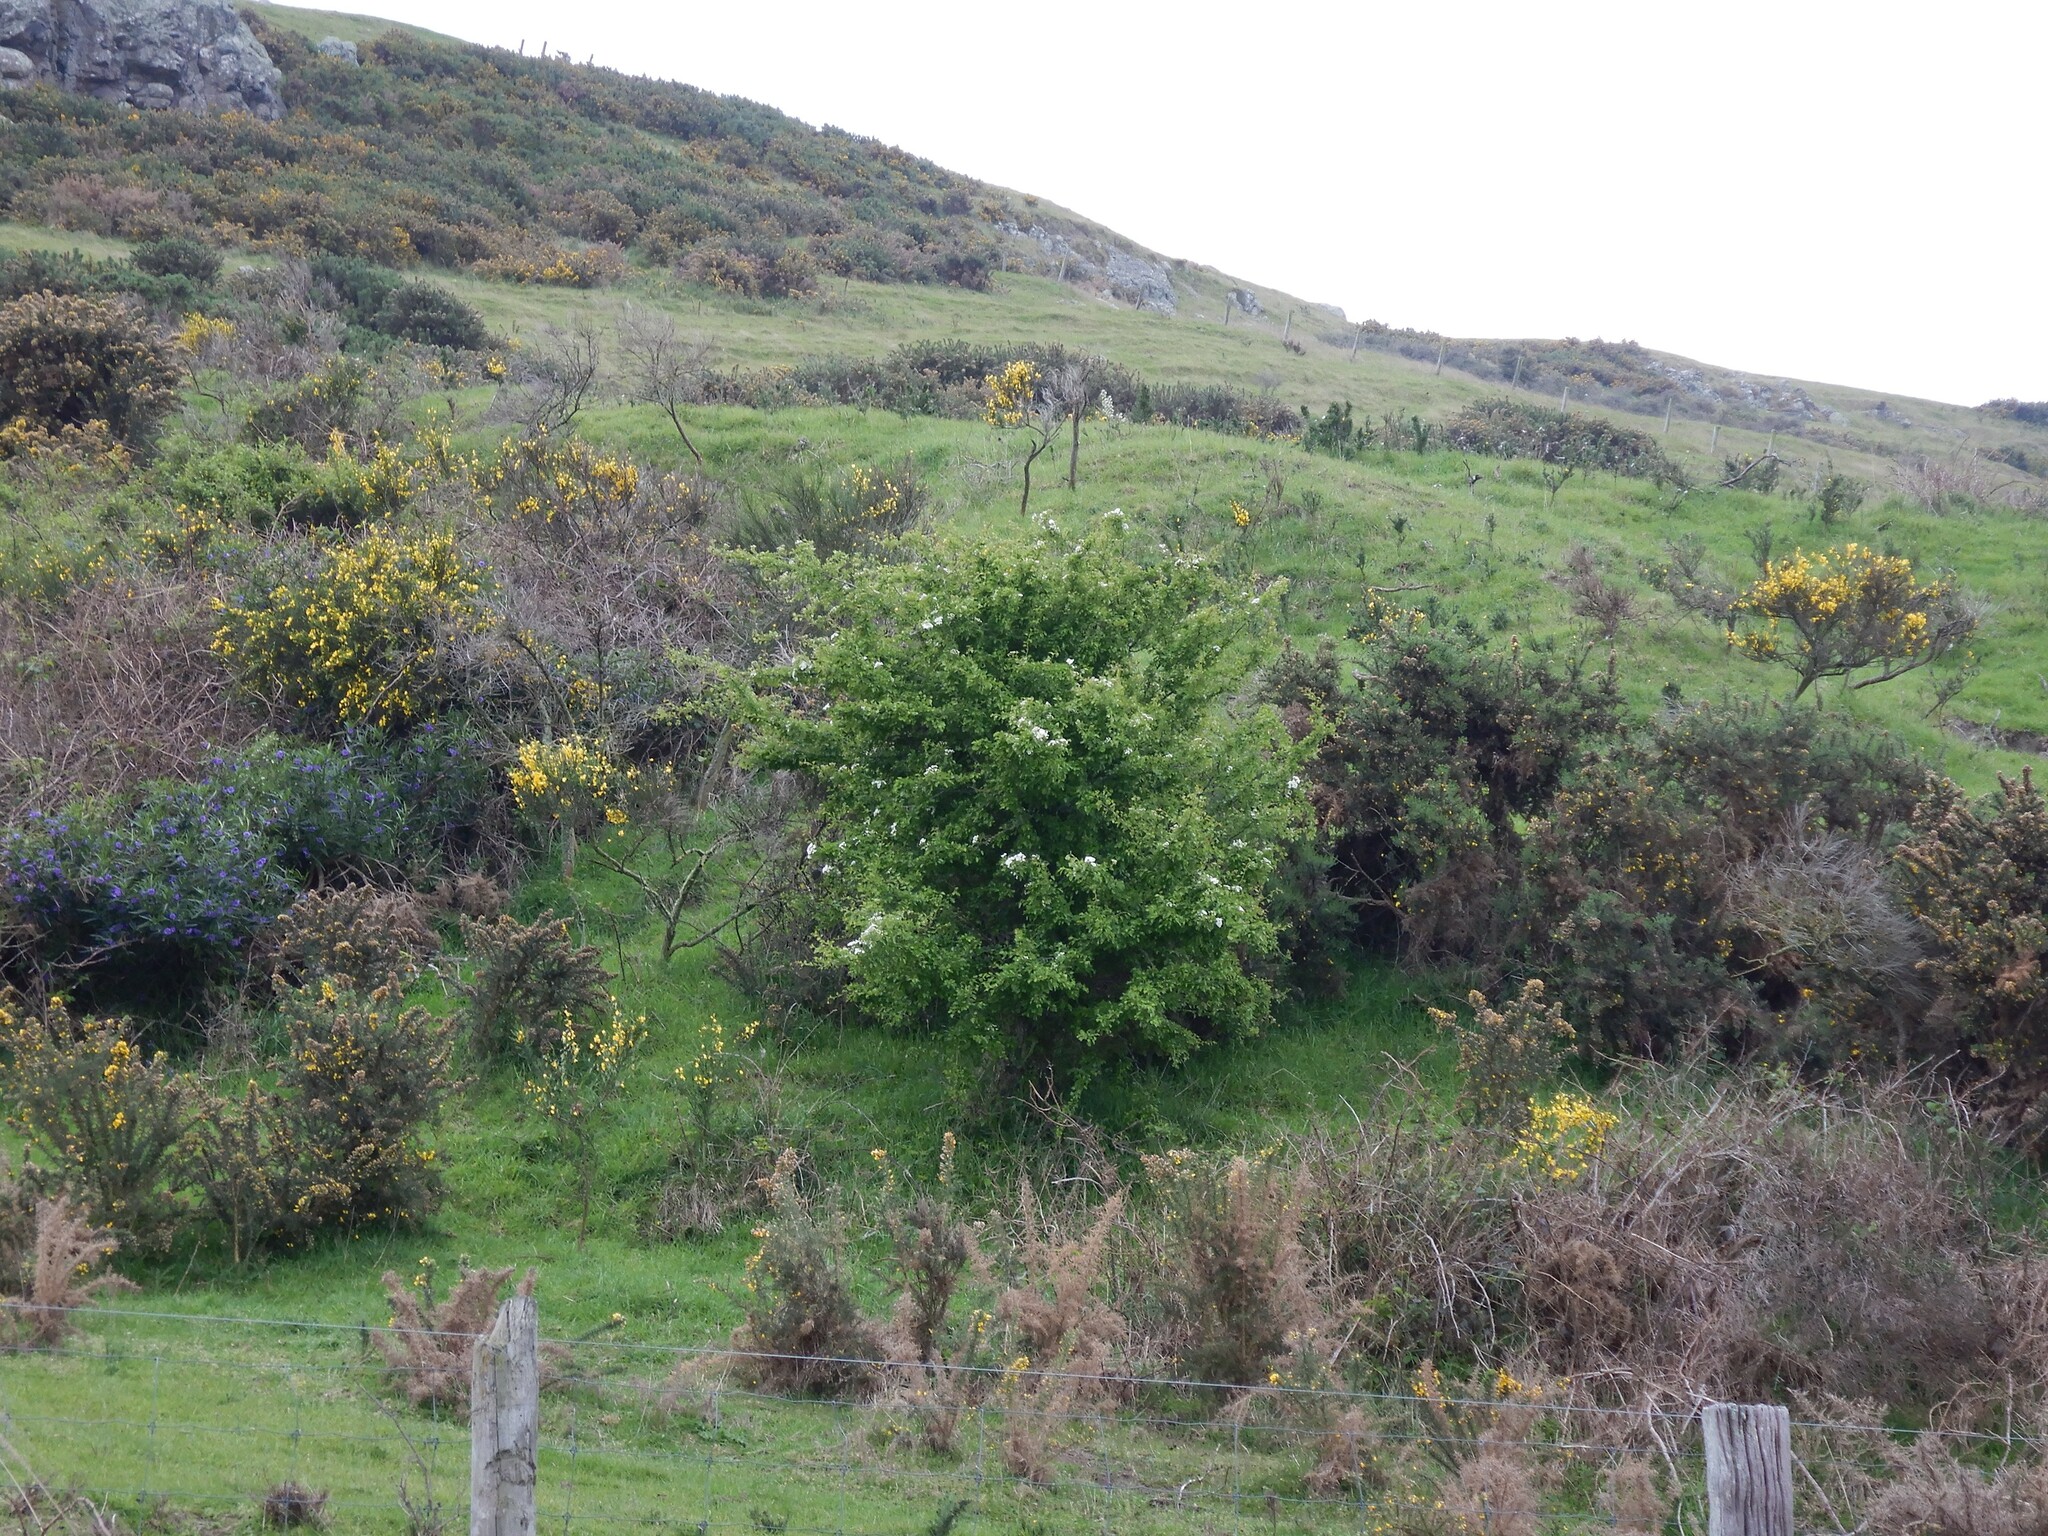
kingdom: Plantae
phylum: Tracheophyta
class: Magnoliopsida
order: Rosales
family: Rosaceae
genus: Crataegus
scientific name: Crataegus monogyna
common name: Hawthorn
